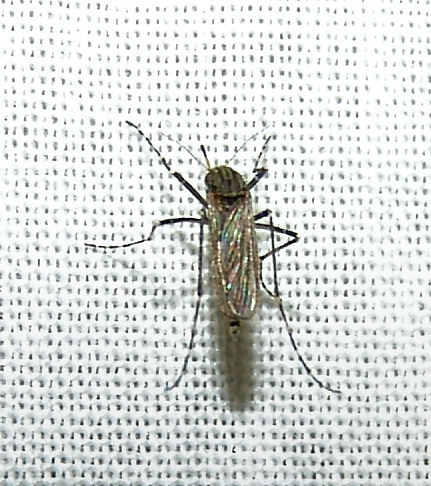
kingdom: Animalia
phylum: Arthropoda
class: Insecta
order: Diptera
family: Culicidae
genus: Psorophora
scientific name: Psorophora columbiae
